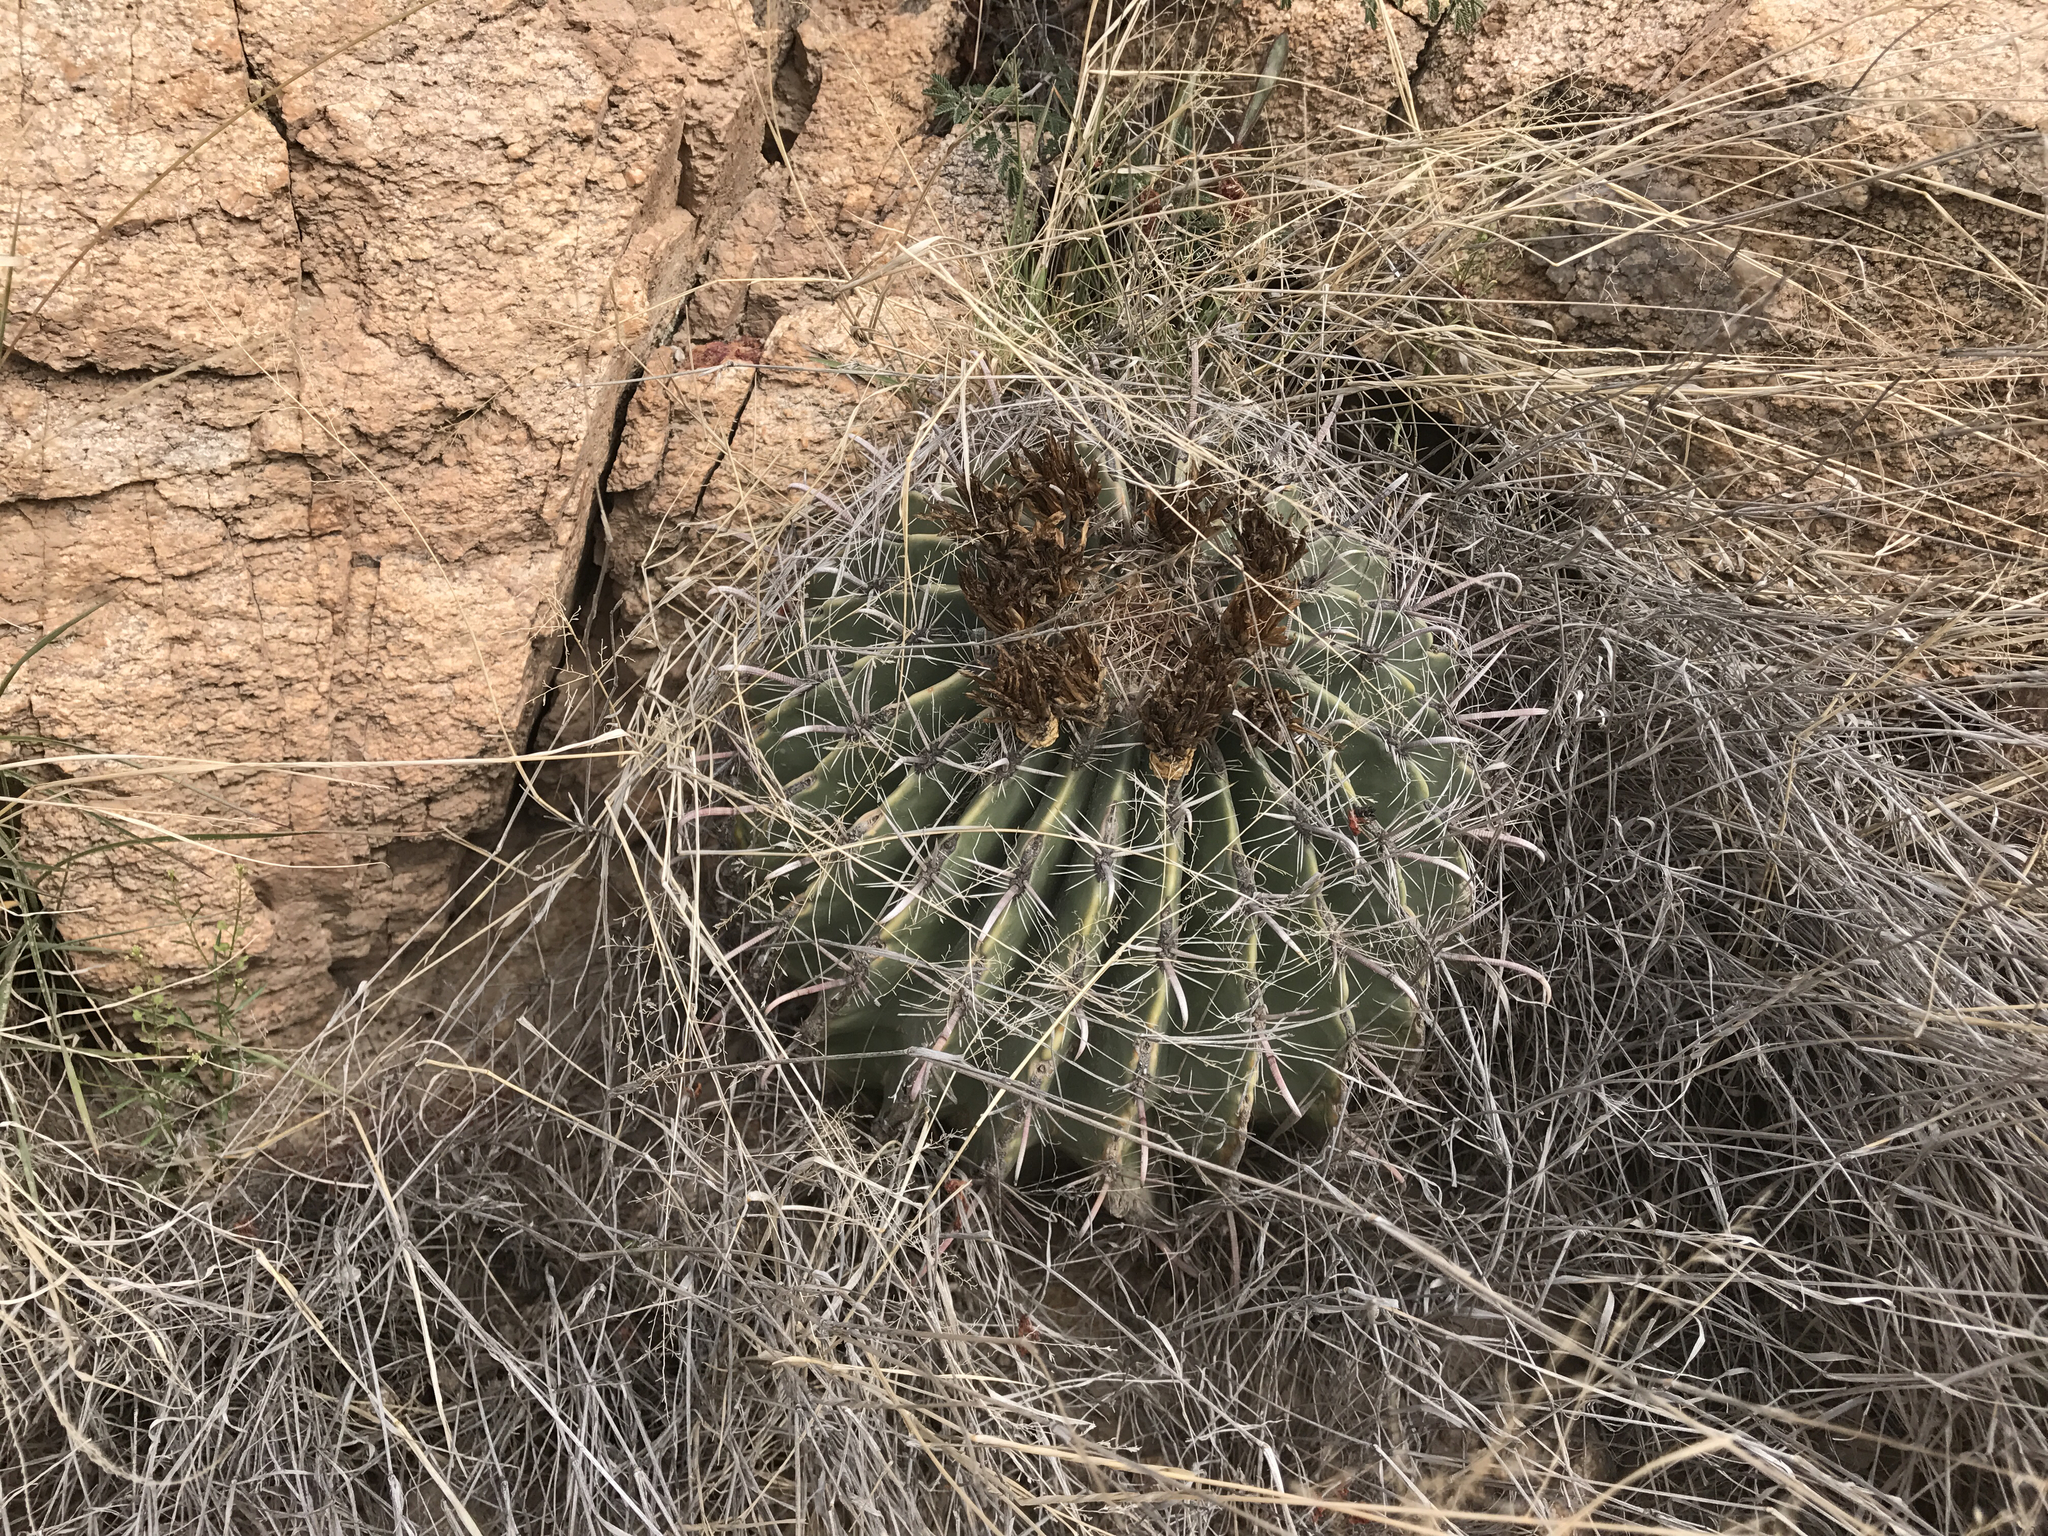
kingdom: Plantae
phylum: Tracheophyta
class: Magnoliopsida
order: Caryophyllales
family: Cactaceae
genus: Ferocactus
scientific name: Ferocactus wislizeni
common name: Candy barrel cactus
